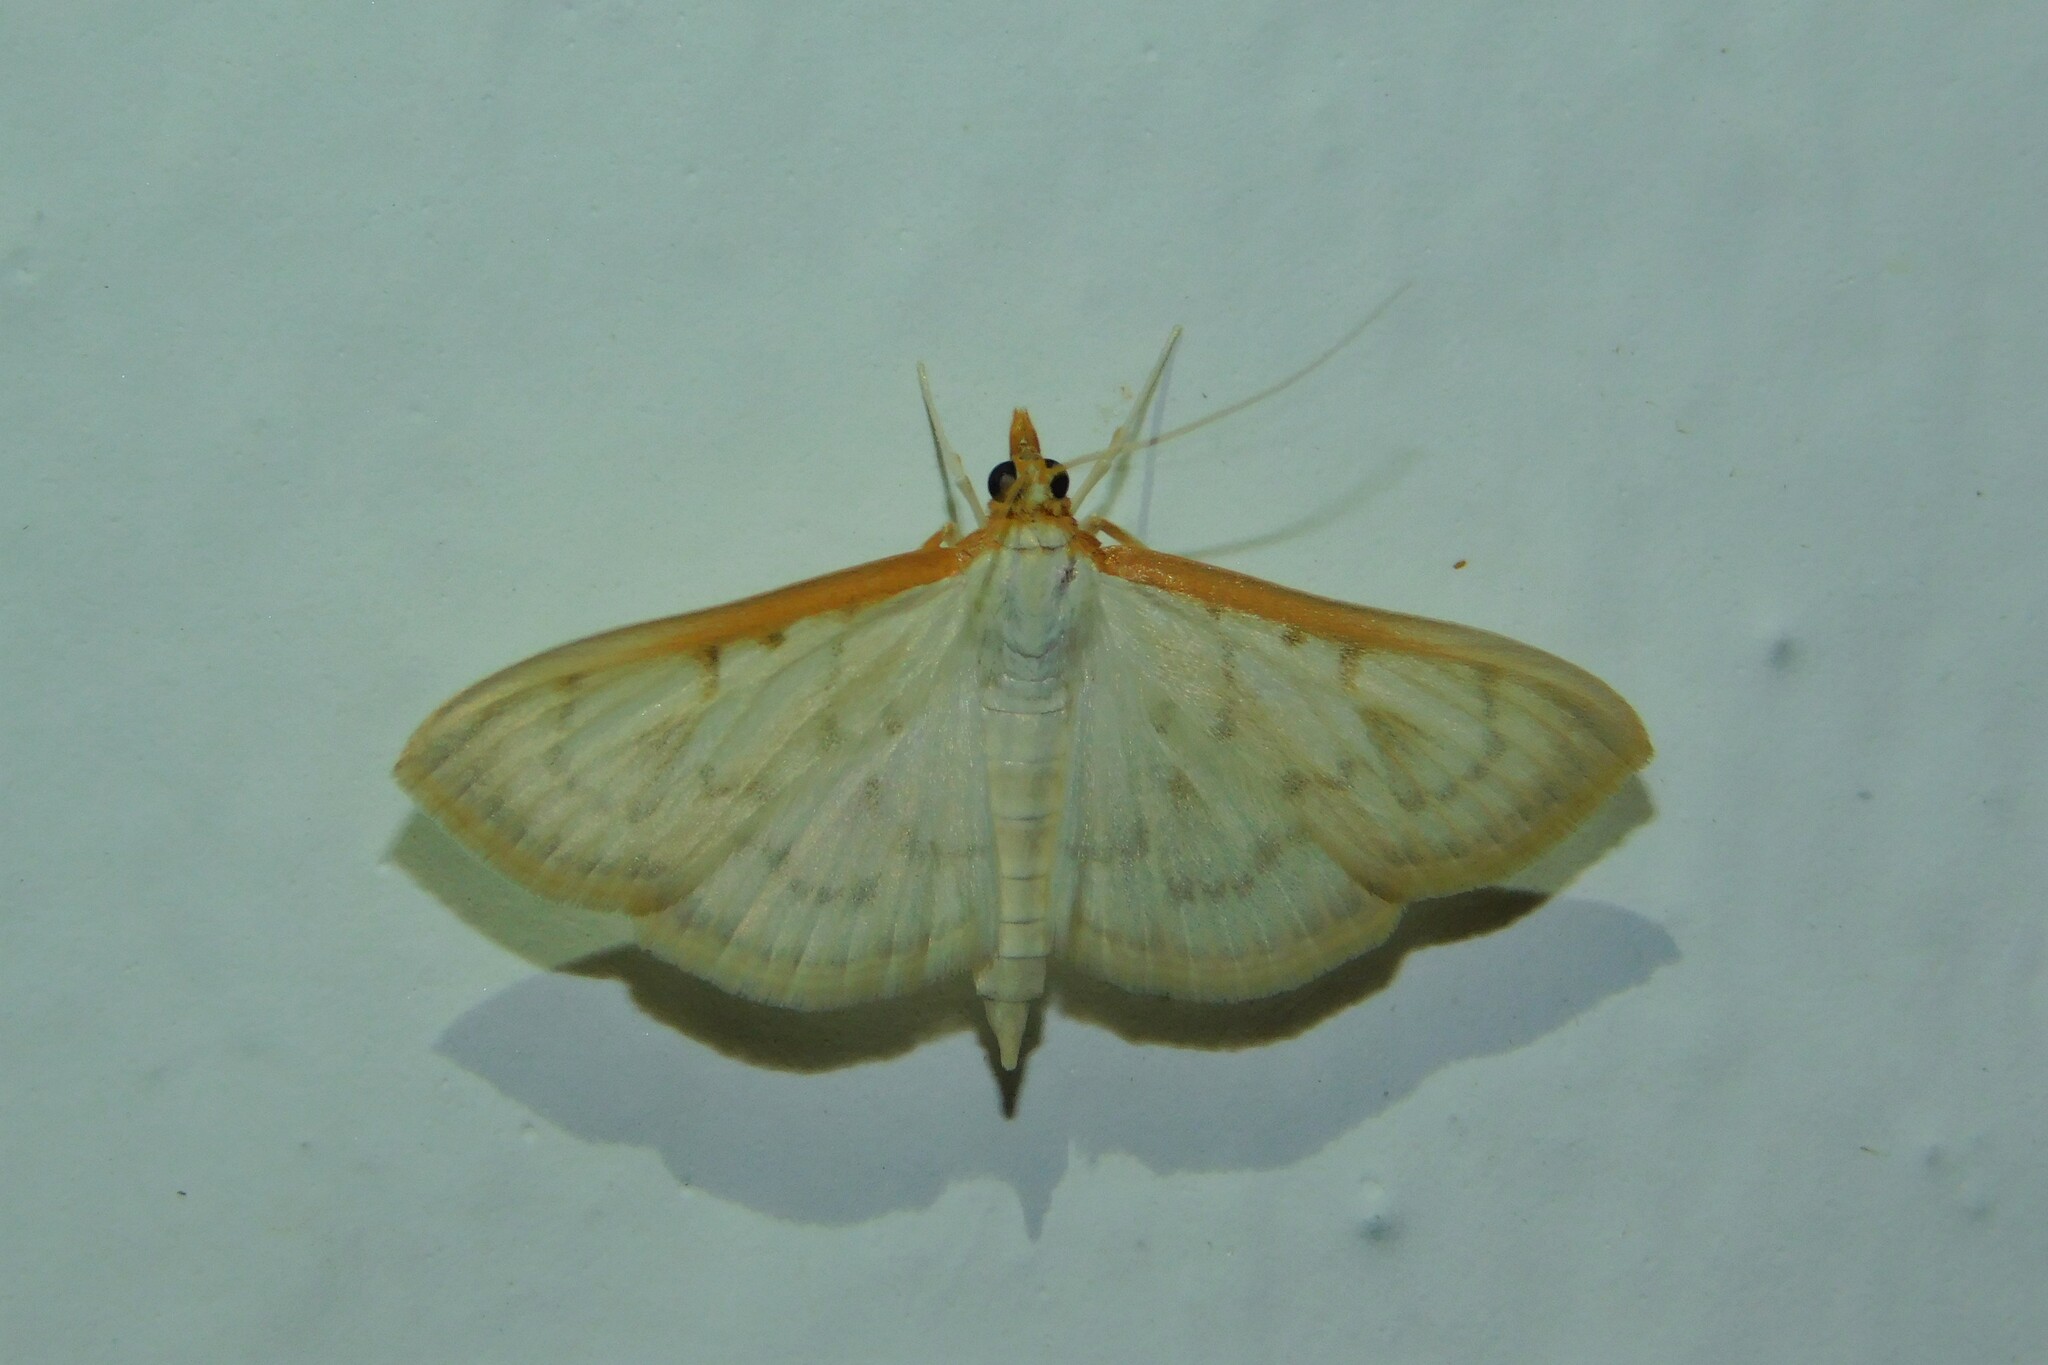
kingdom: Animalia
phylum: Arthropoda
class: Insecta
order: Lepidoptera
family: Crambidae
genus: Pyrausta
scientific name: Pyrausta testalis
